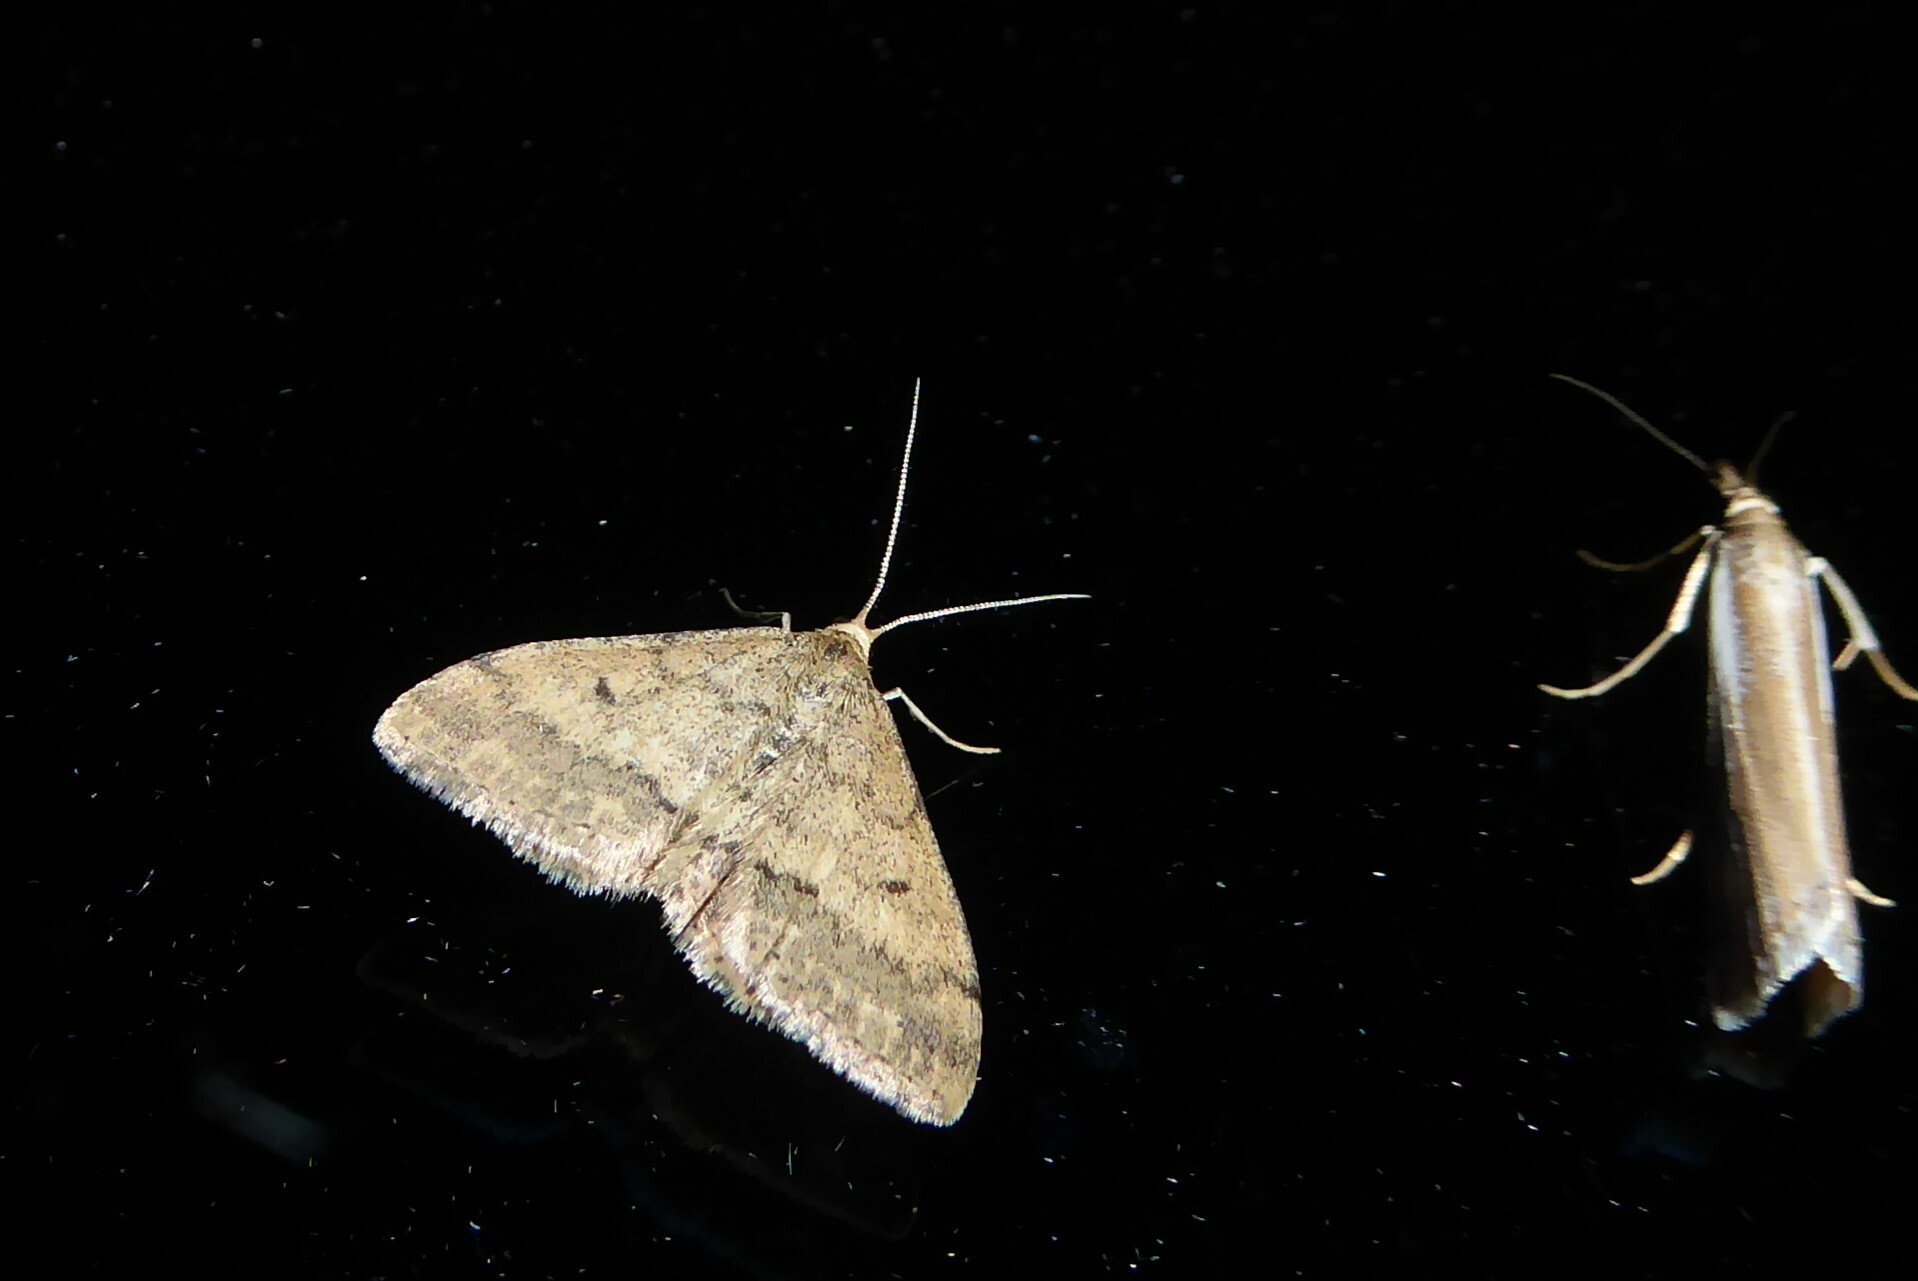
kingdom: Animalia
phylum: Arthropoda
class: Insecta
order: Lepidoptera
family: Geometridae
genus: Scopula
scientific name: Scopula rubraria
